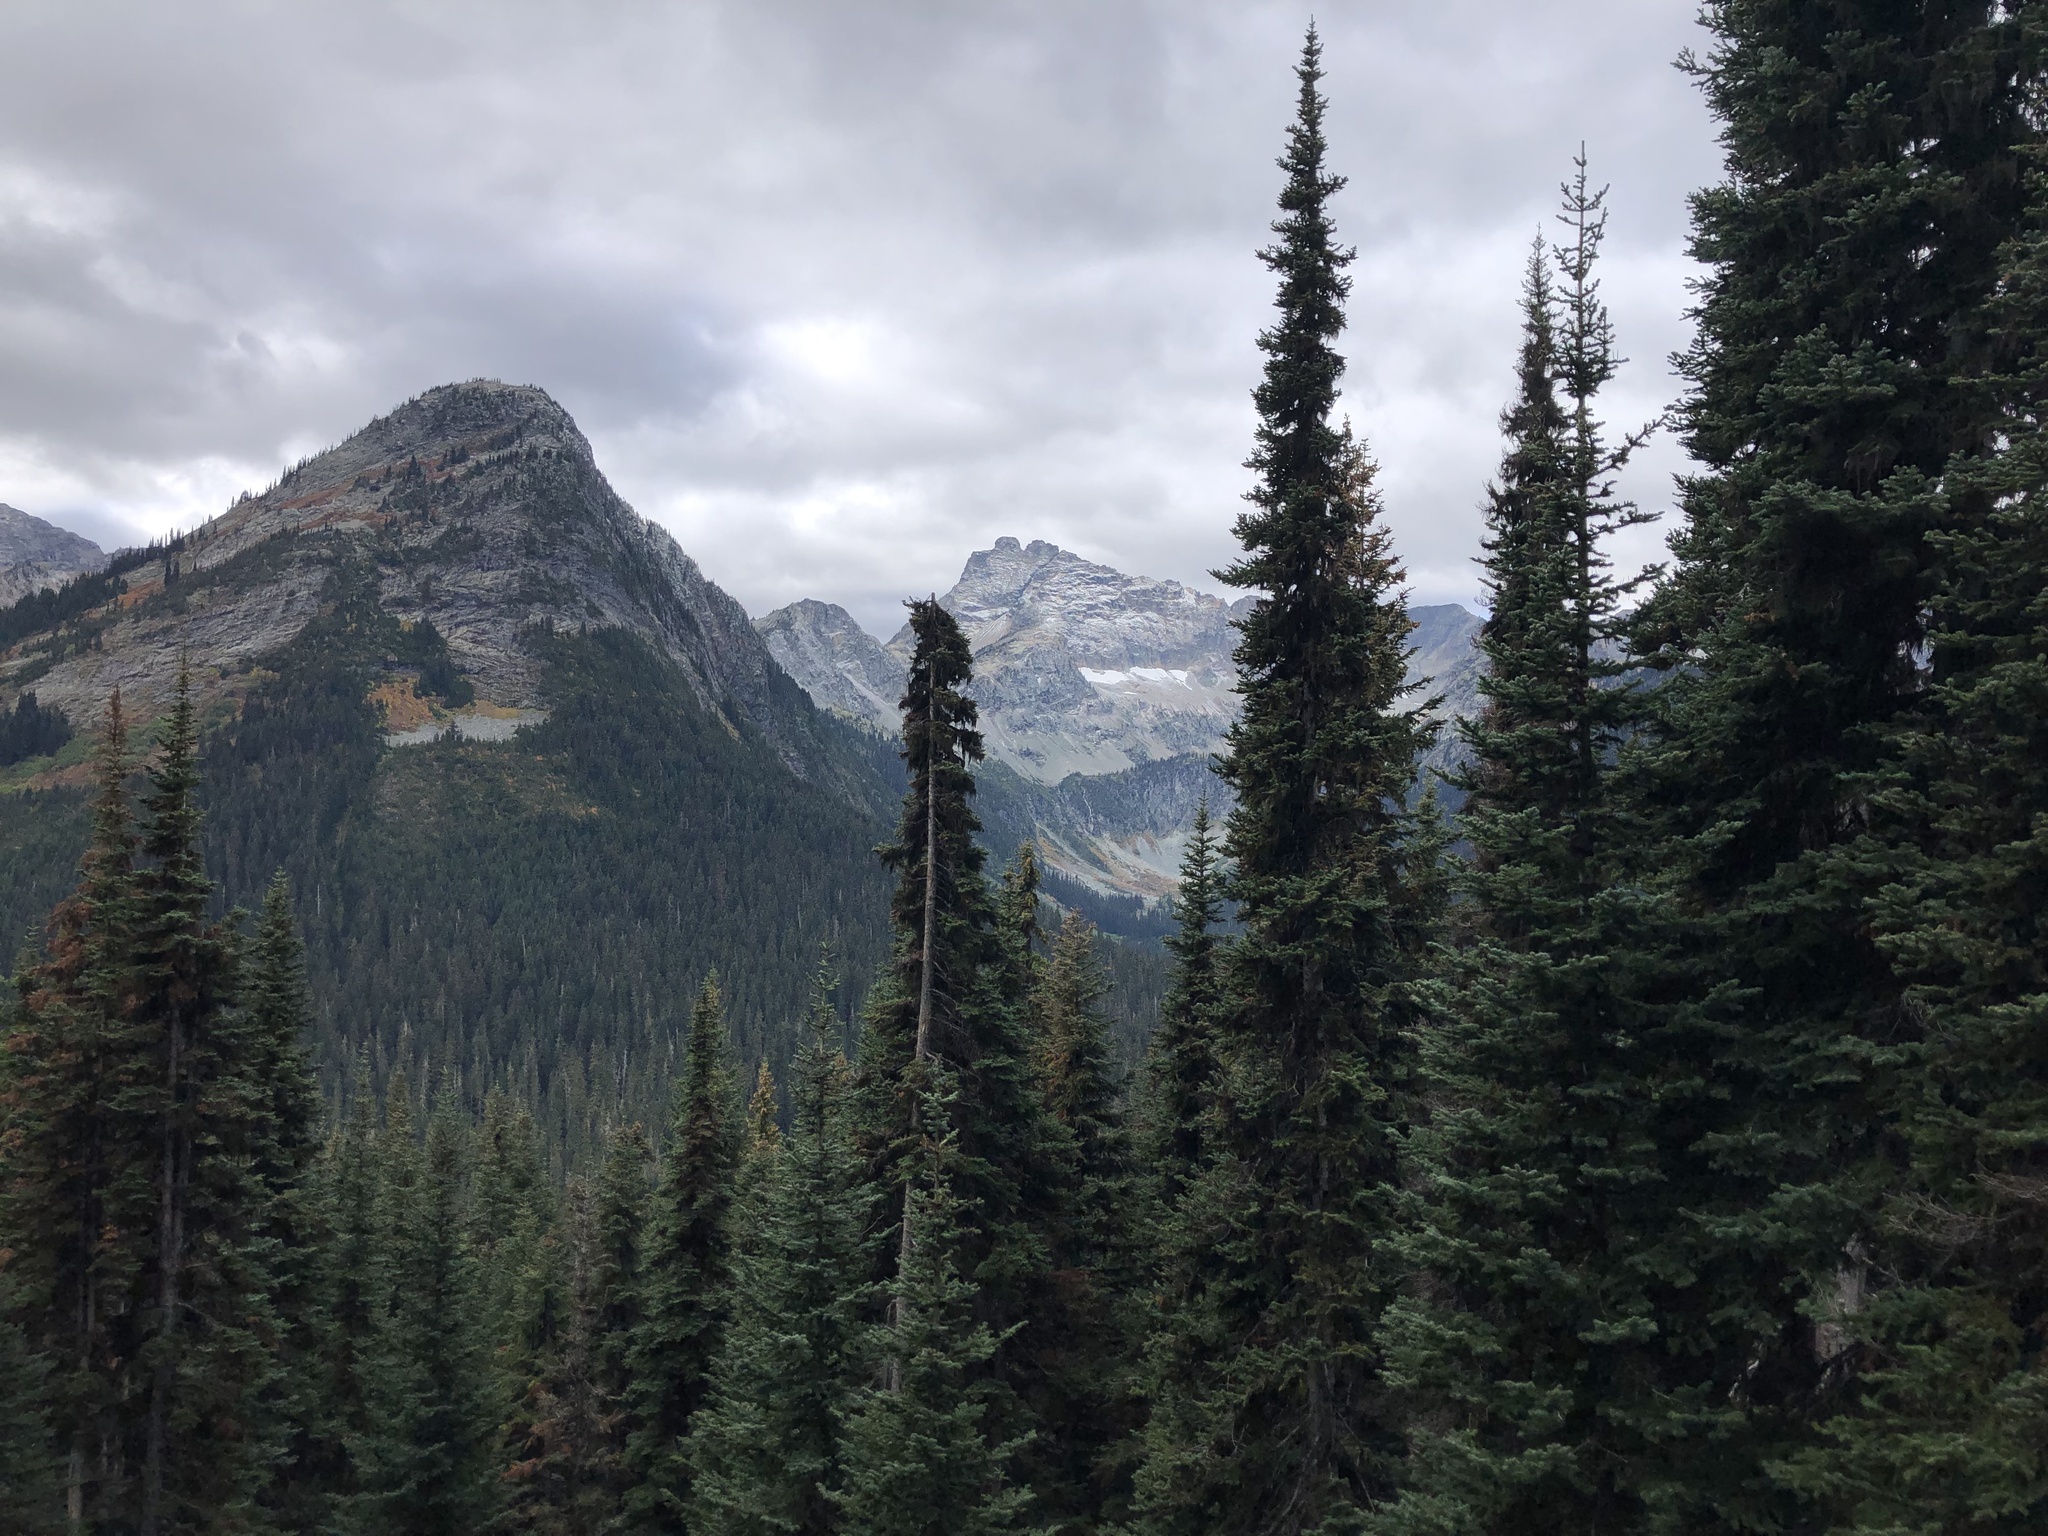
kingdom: Plantae
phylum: Tracheophyta
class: Pinopsida
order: Pinales
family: Pinaceae
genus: Abies
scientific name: Abies lasiocarpa
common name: Subalpine fir
